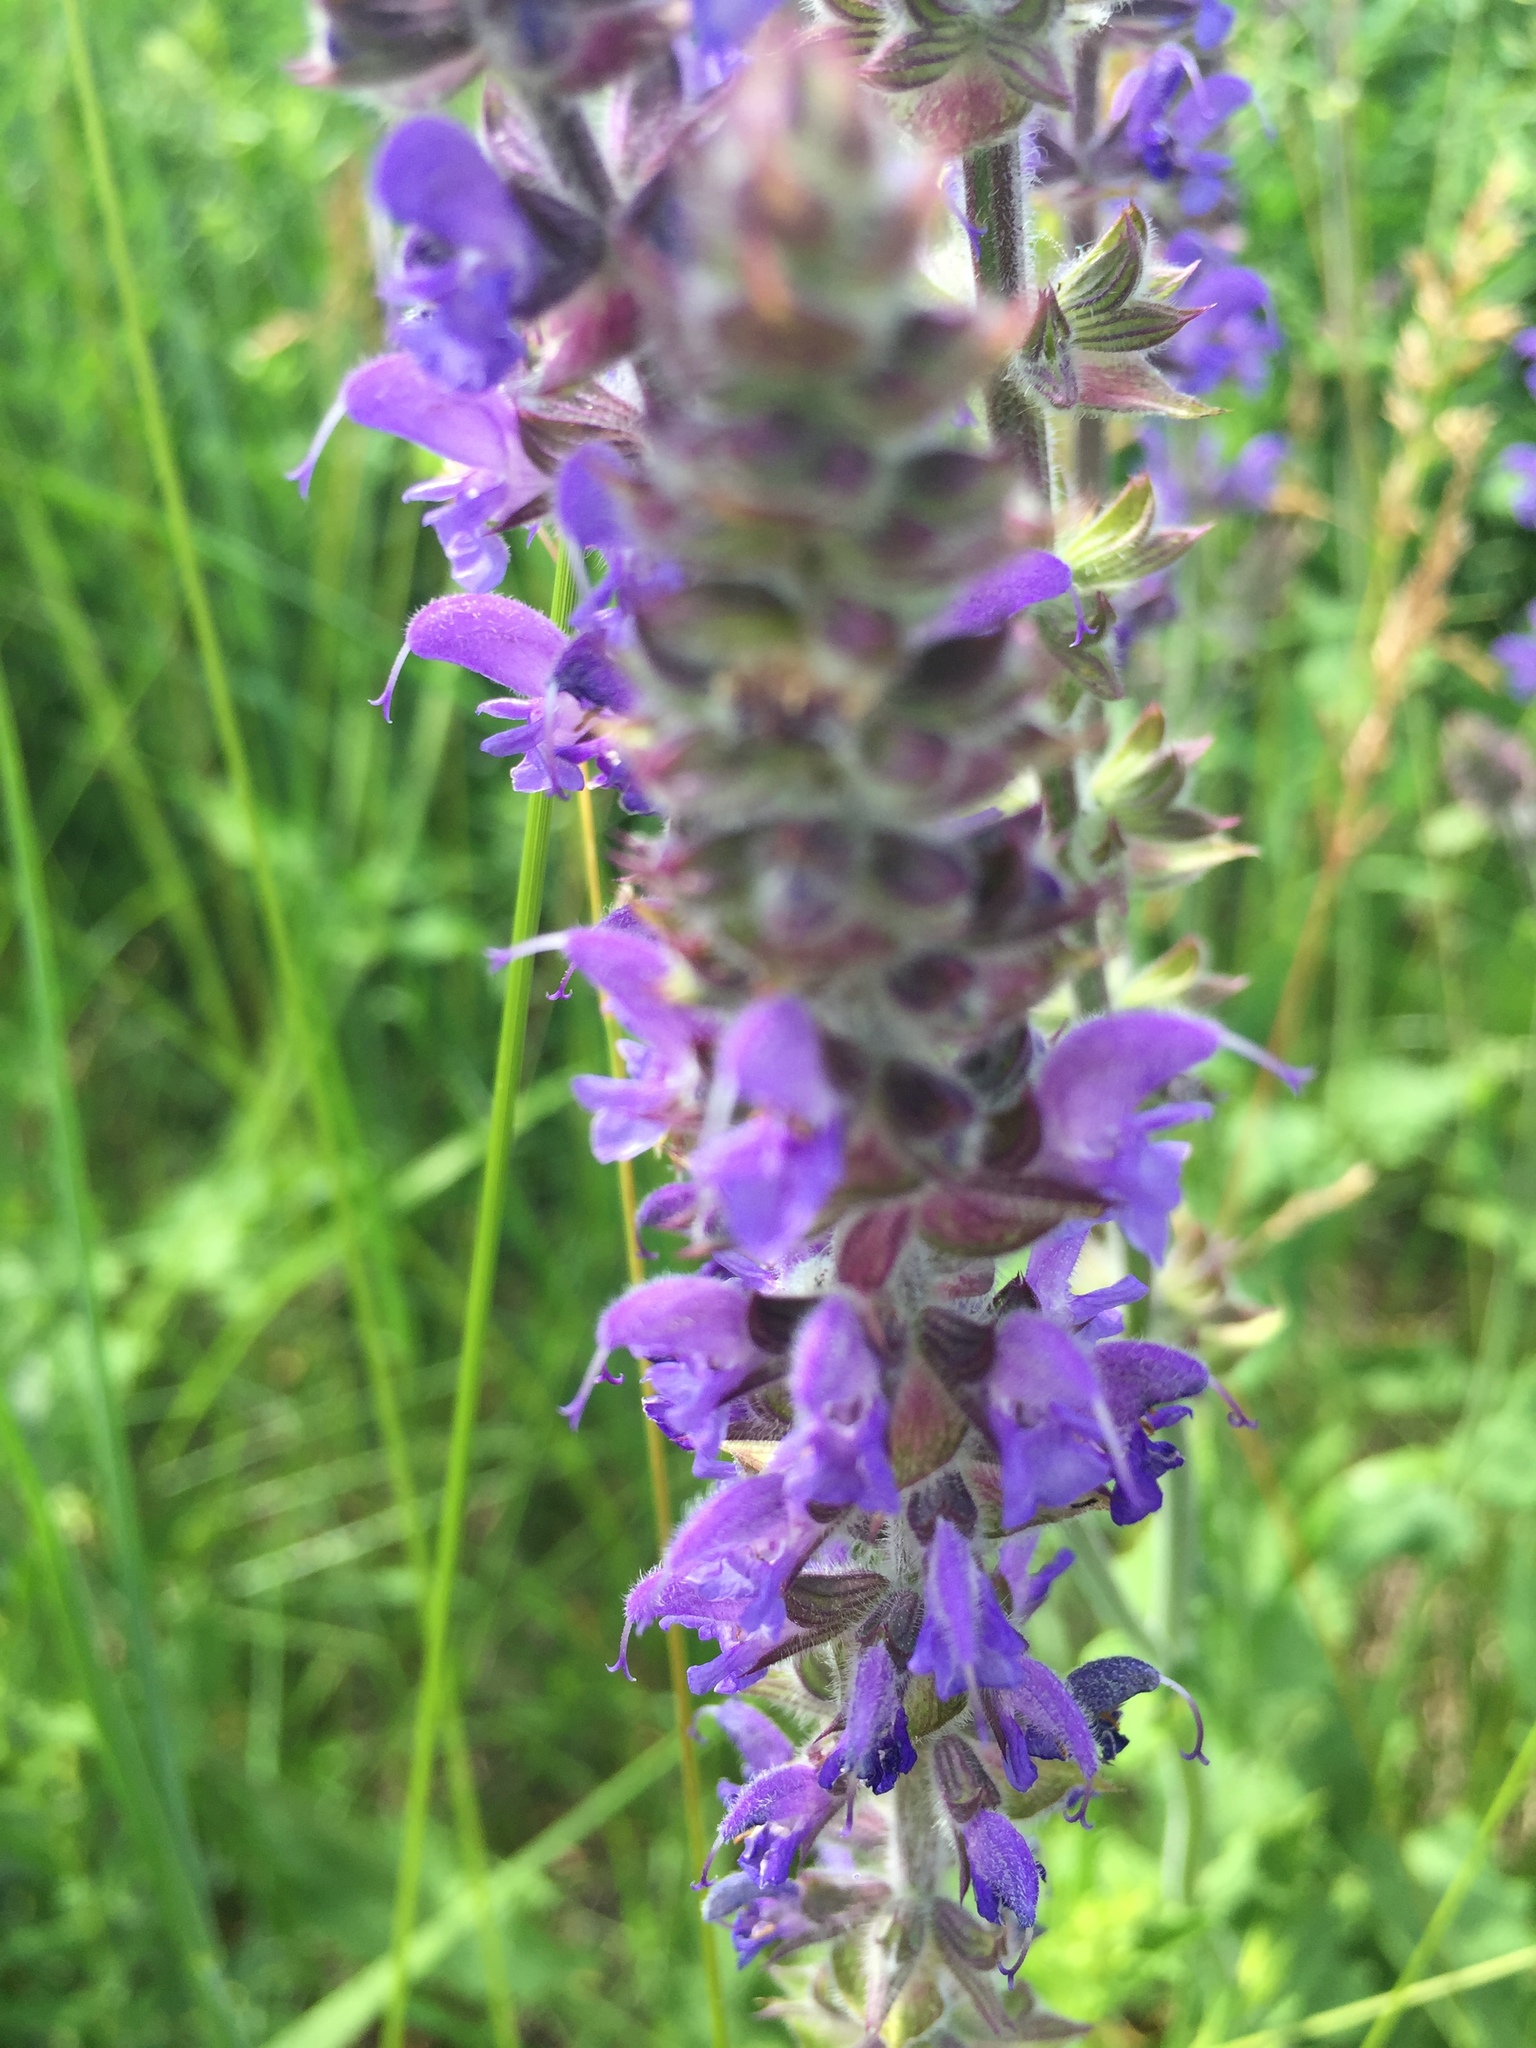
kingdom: Plantae
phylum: Tracheophyta
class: Magnoliopsida
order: Lamiales
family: Lamiaceae
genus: Salvia
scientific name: Salvia nemorosa
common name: Balkan clary
